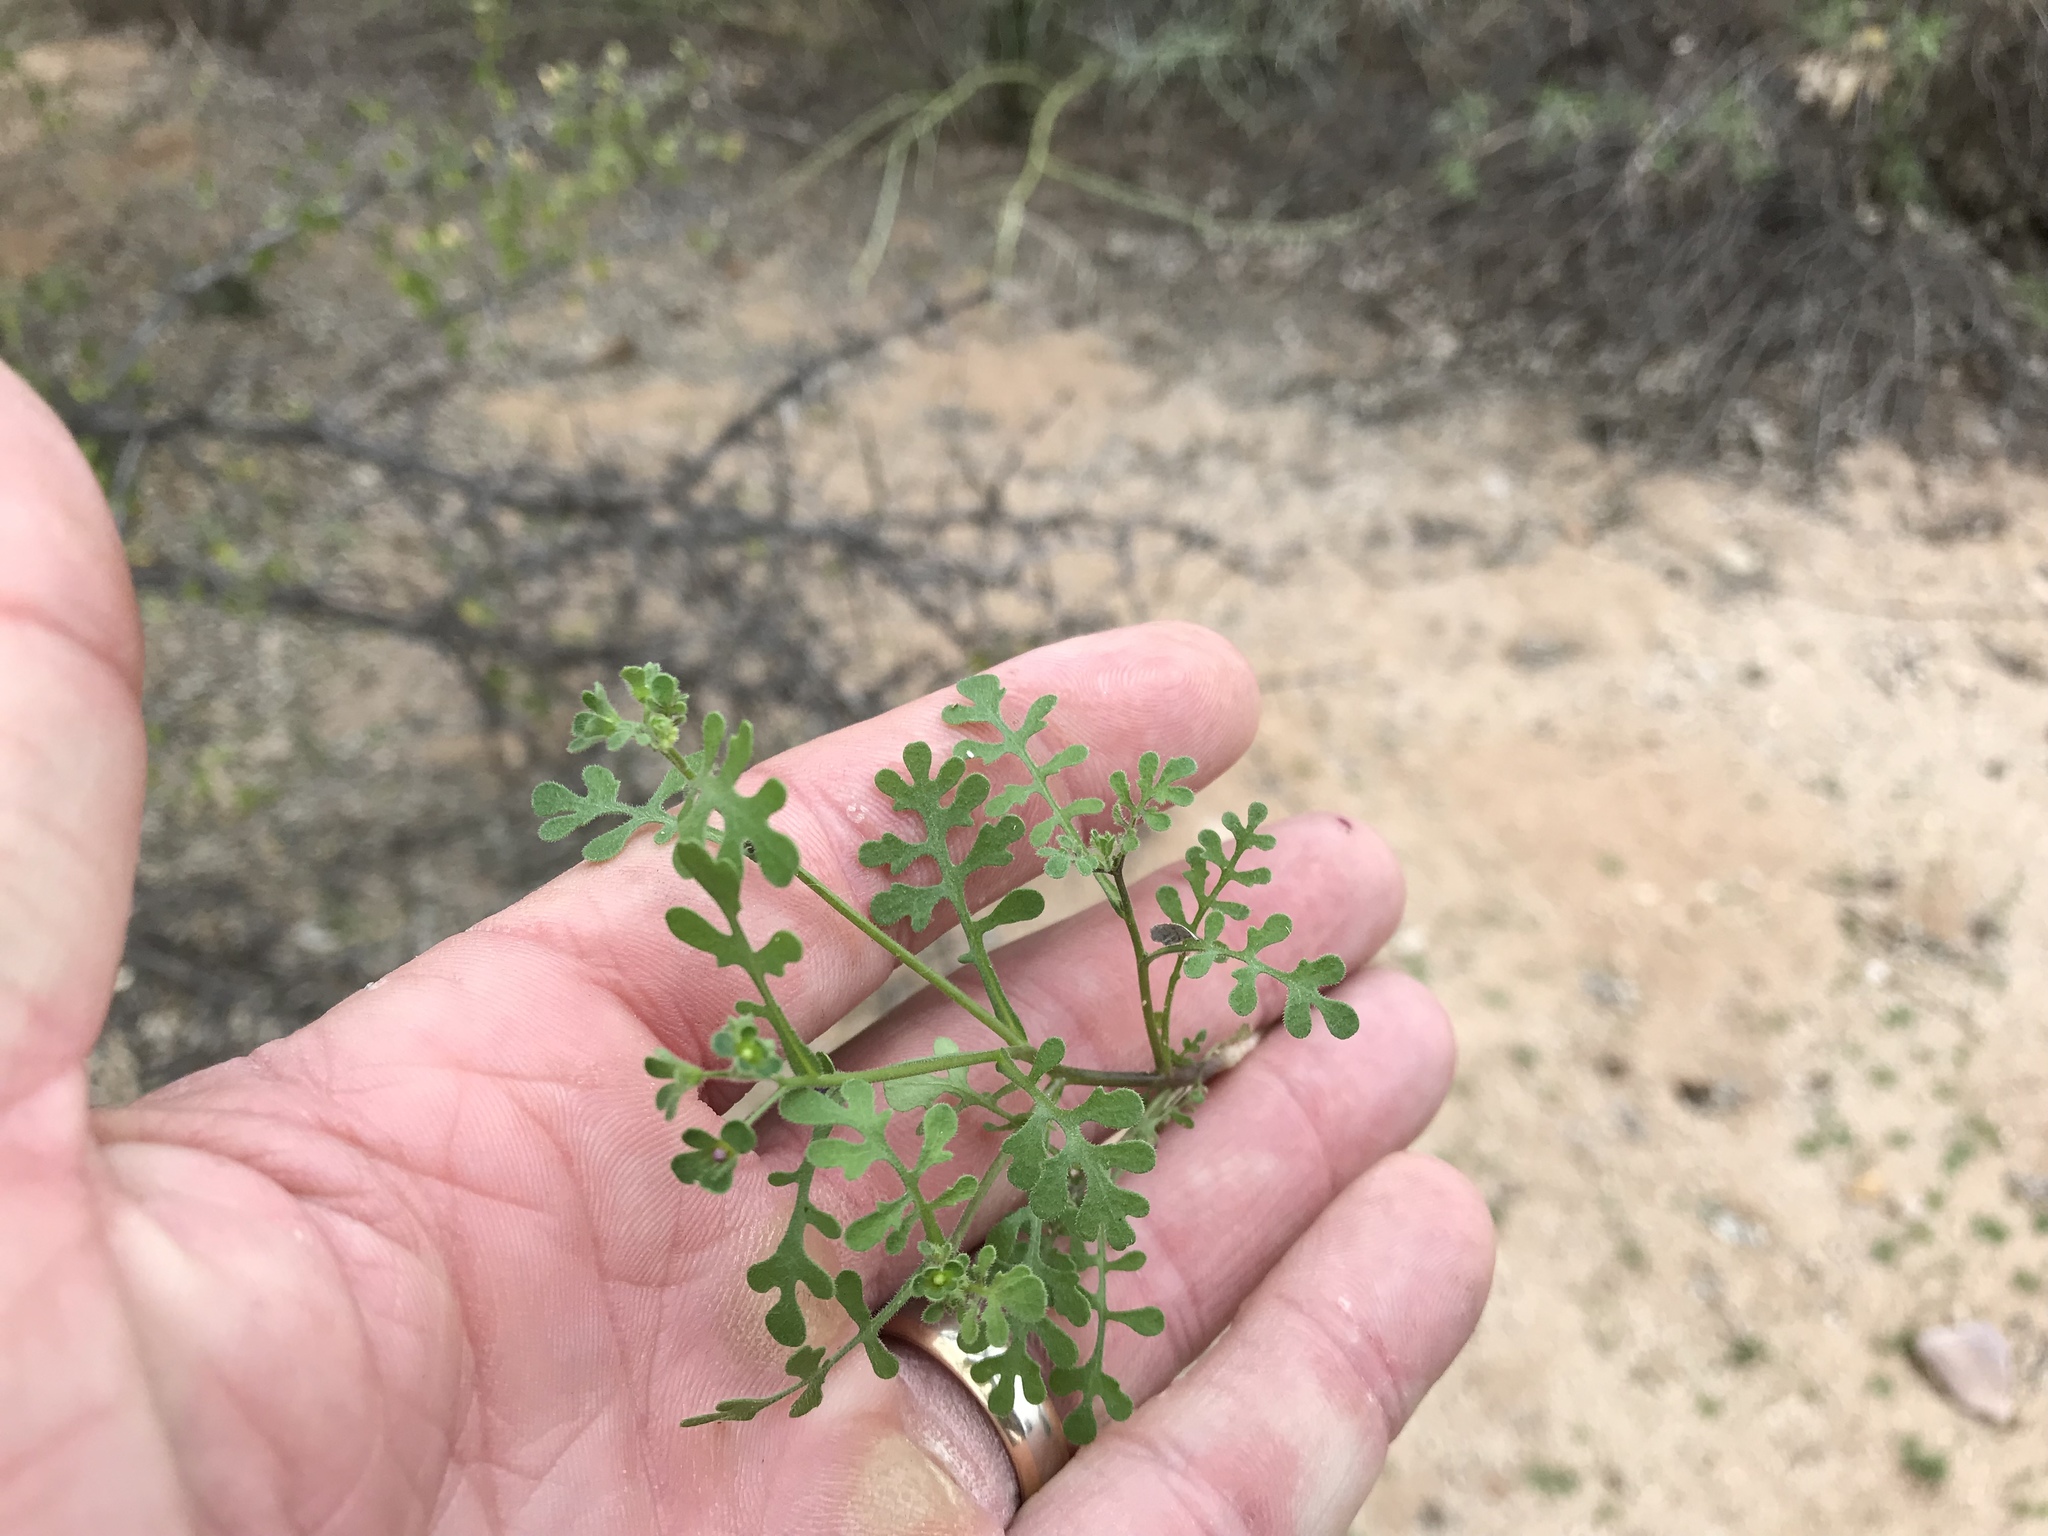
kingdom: Plantae
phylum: Tracheophyta
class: Magnoliopsida
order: Boraginales
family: Hydrophyllaceae
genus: Eucrypta
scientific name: Eucrypta micrantha
